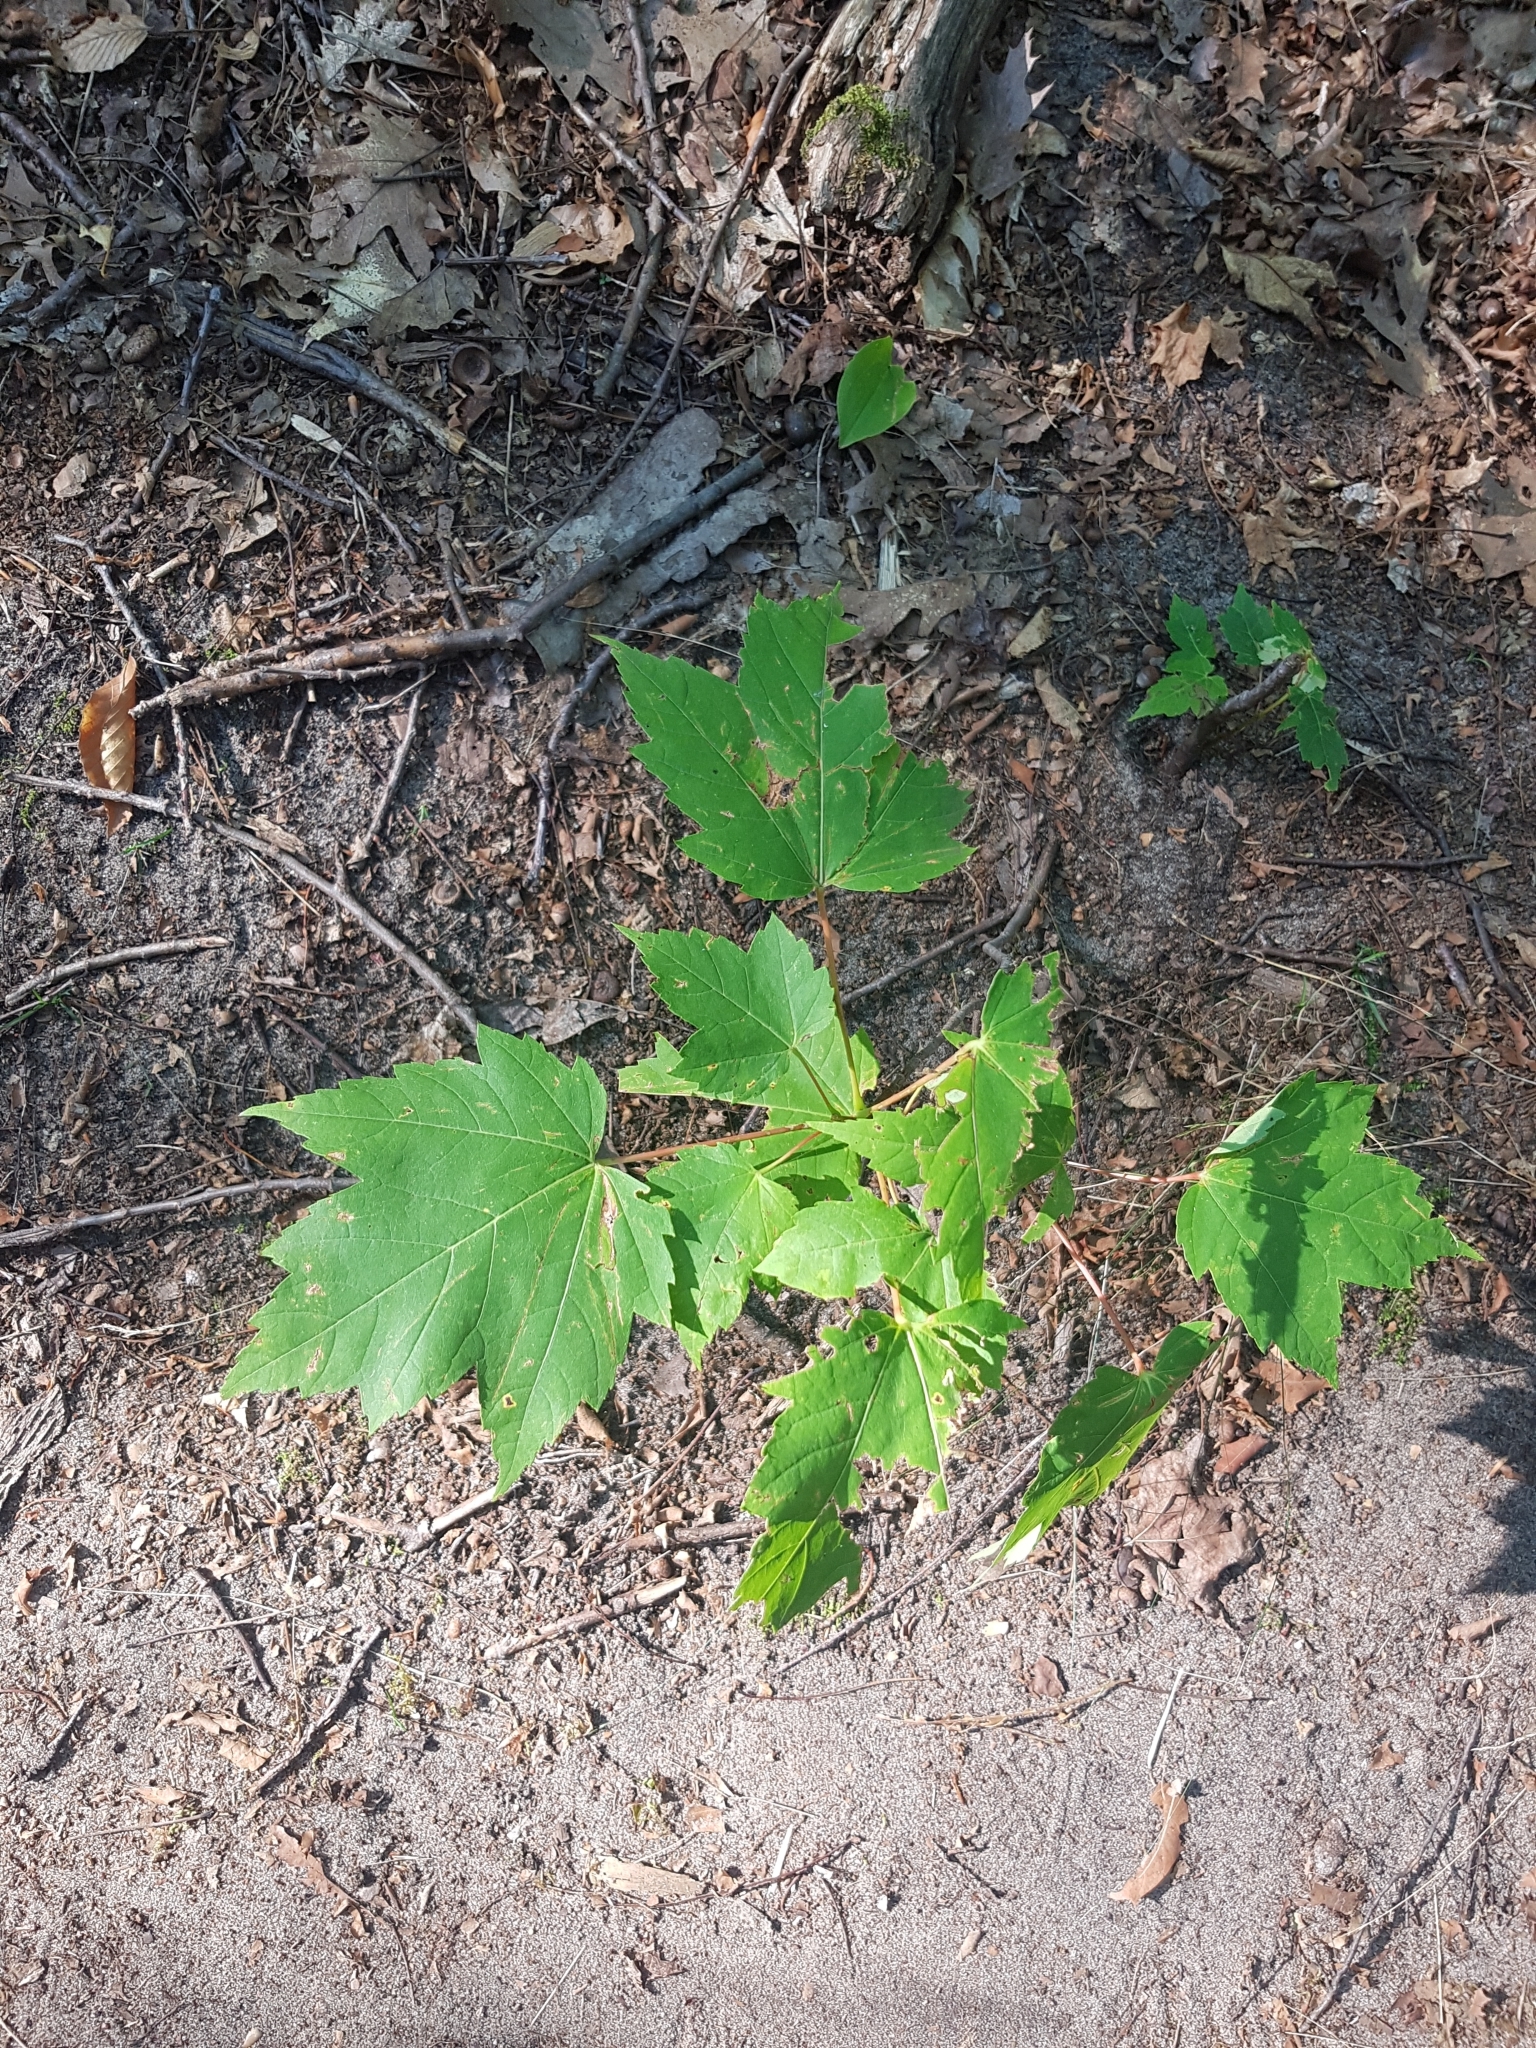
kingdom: Plantae
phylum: Tracheophyta
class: Magnoliopsida
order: Sapindales
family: Sapindaceae
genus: Acer
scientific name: Acer rubrum
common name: Red maple
